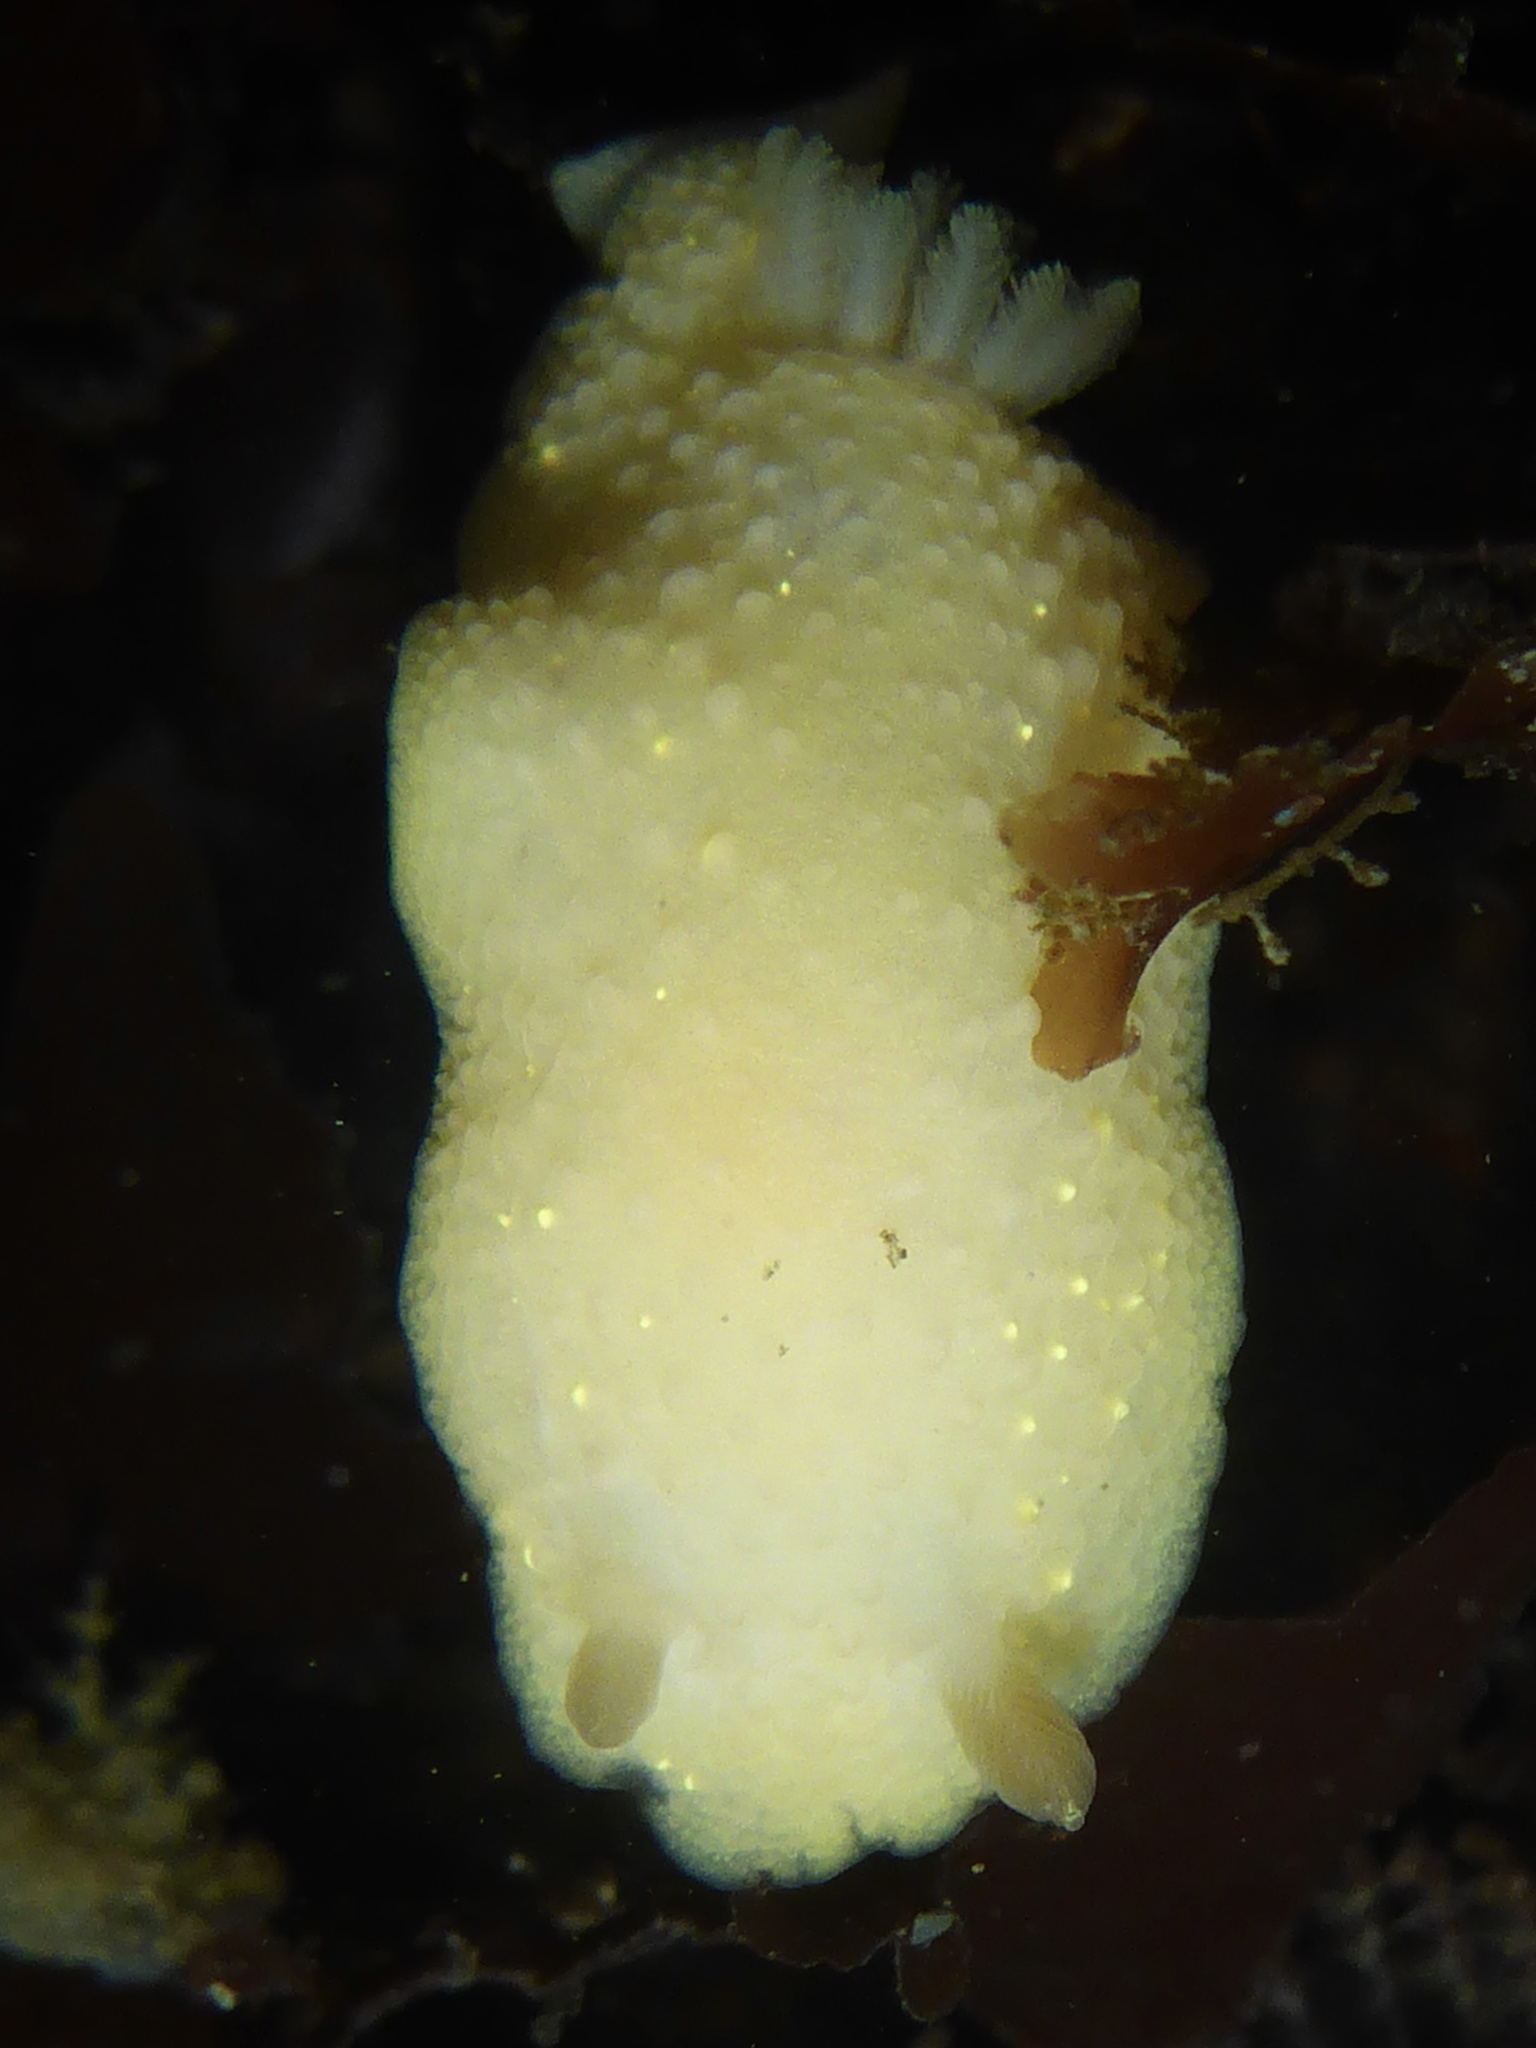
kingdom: Animalia
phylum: Mollusca
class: Gastropoda
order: Nudibranchia
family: Cadlinidae
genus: Cadlina
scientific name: Cadlina modesta
